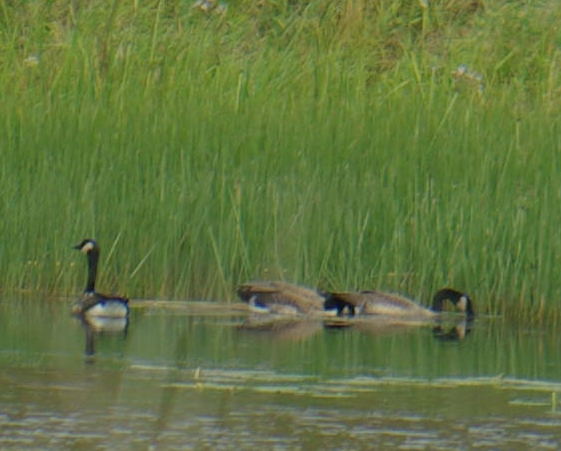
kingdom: Animalia
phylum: Chordata
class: Aves
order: Anseriformes
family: Anatidae
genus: Branta
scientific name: Branta canadensis
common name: Canada goose
